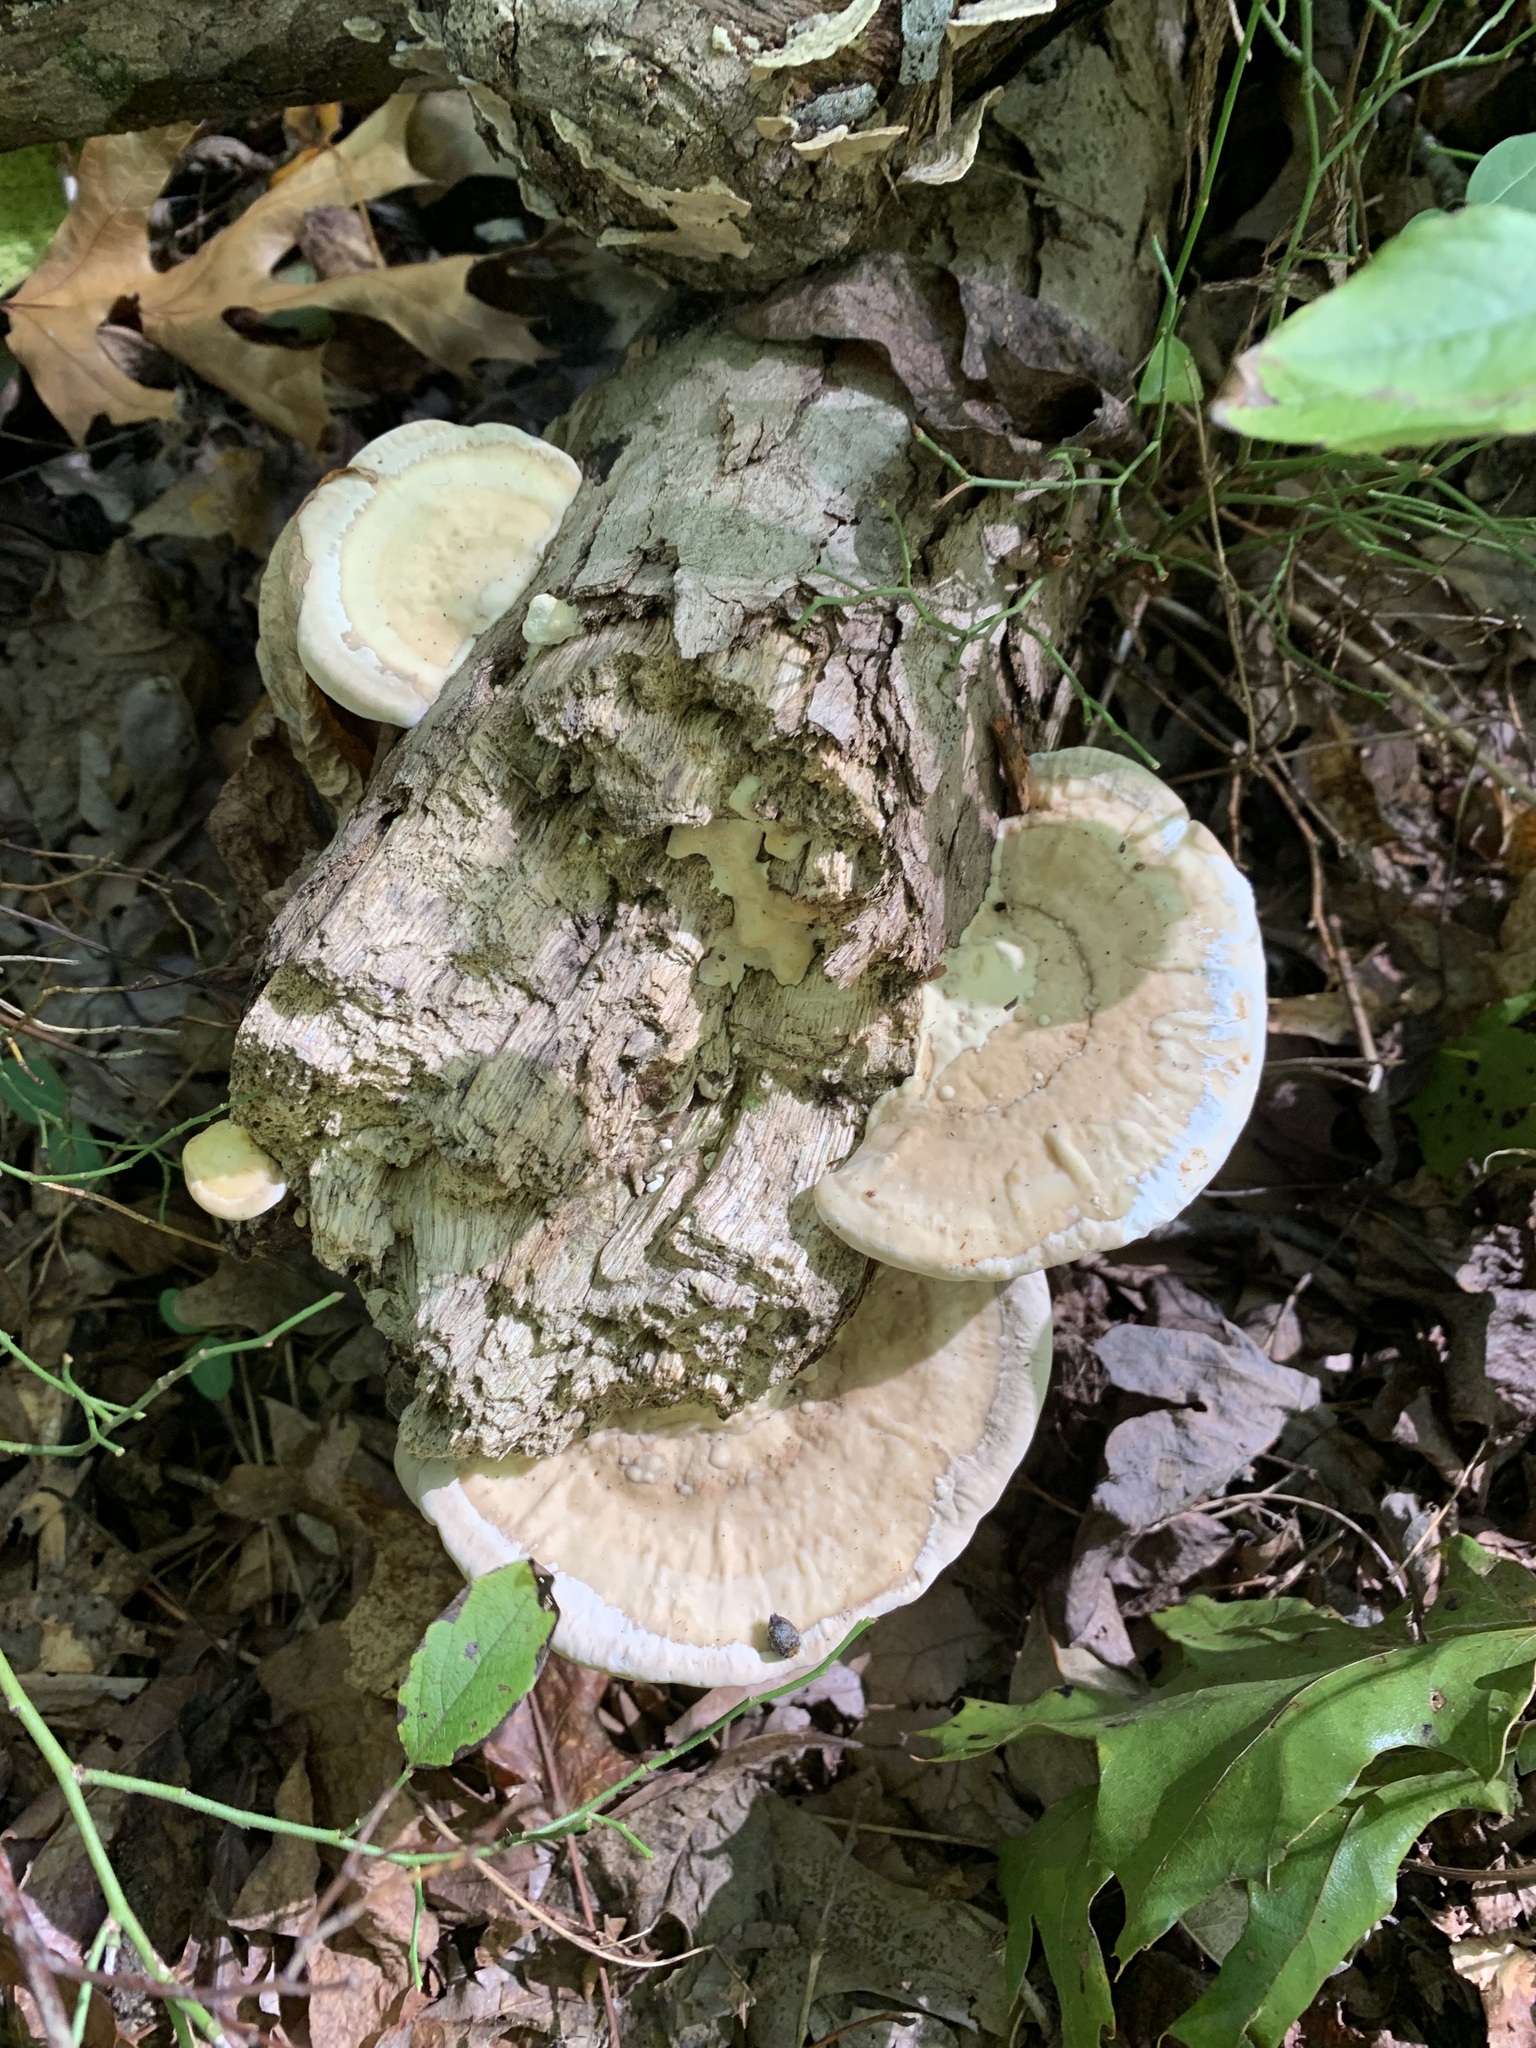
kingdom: Fungi
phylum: Basidiomycota
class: Agaricomycetes
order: Polyporales
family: Polyporaceae
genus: Trametes
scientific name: Trametes lactinea
